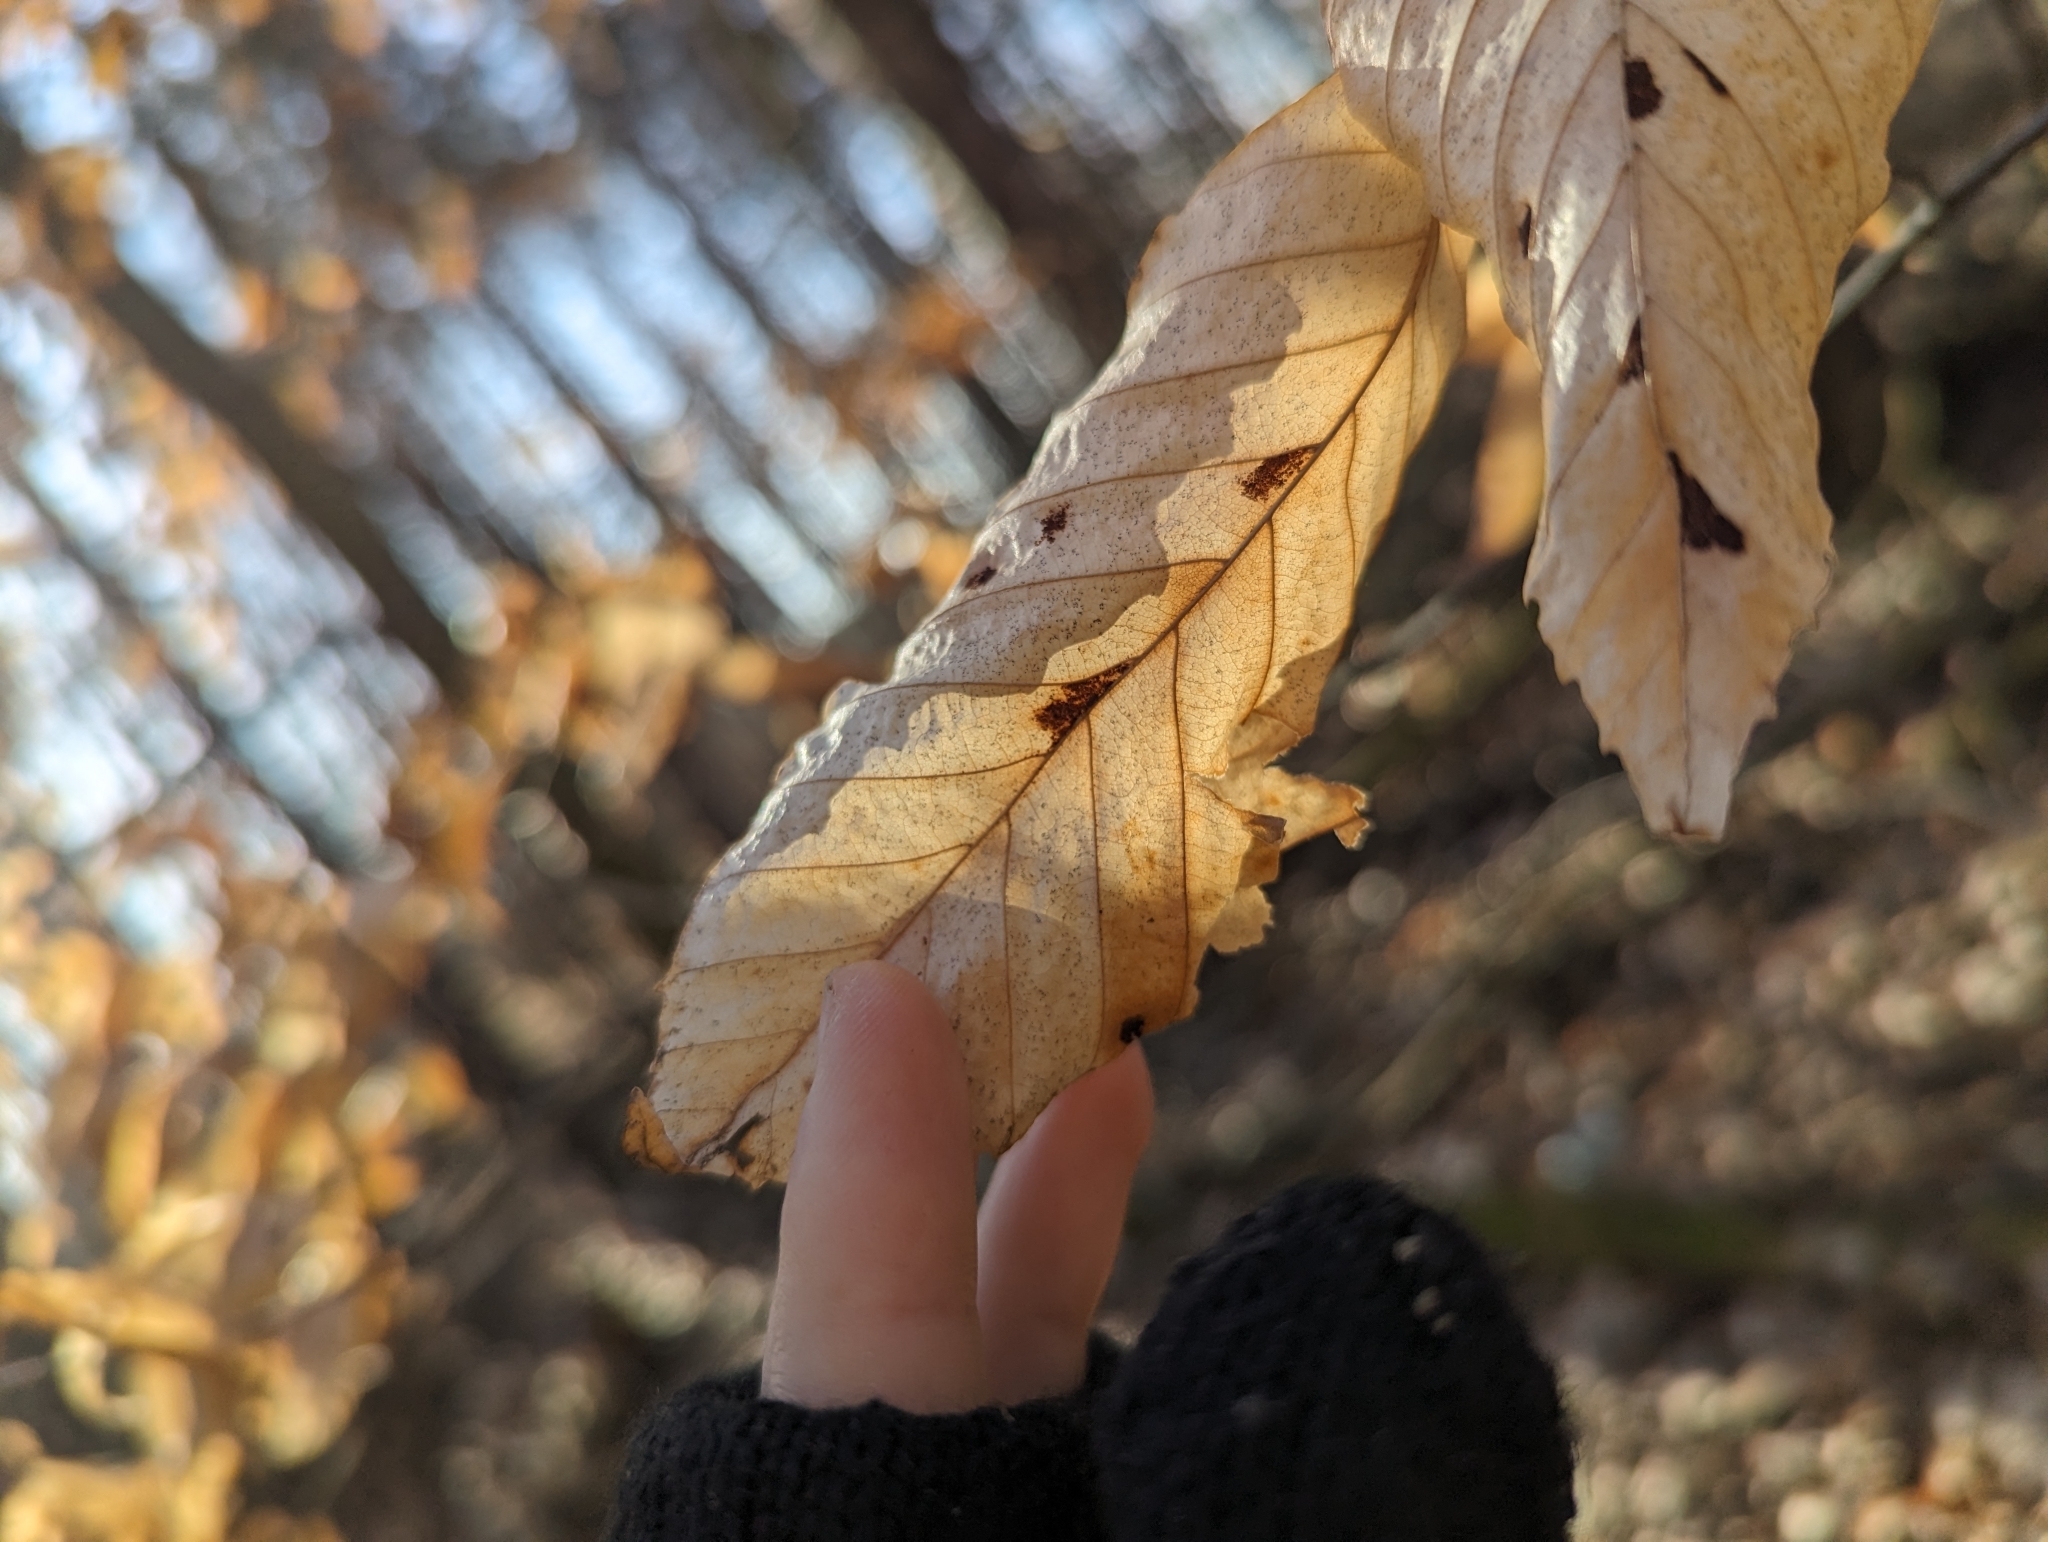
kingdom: Animalia
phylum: Arthropoda
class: Arachnida
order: Trombidiformes
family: Eriophyidae
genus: Acalitus
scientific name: Acalitus
